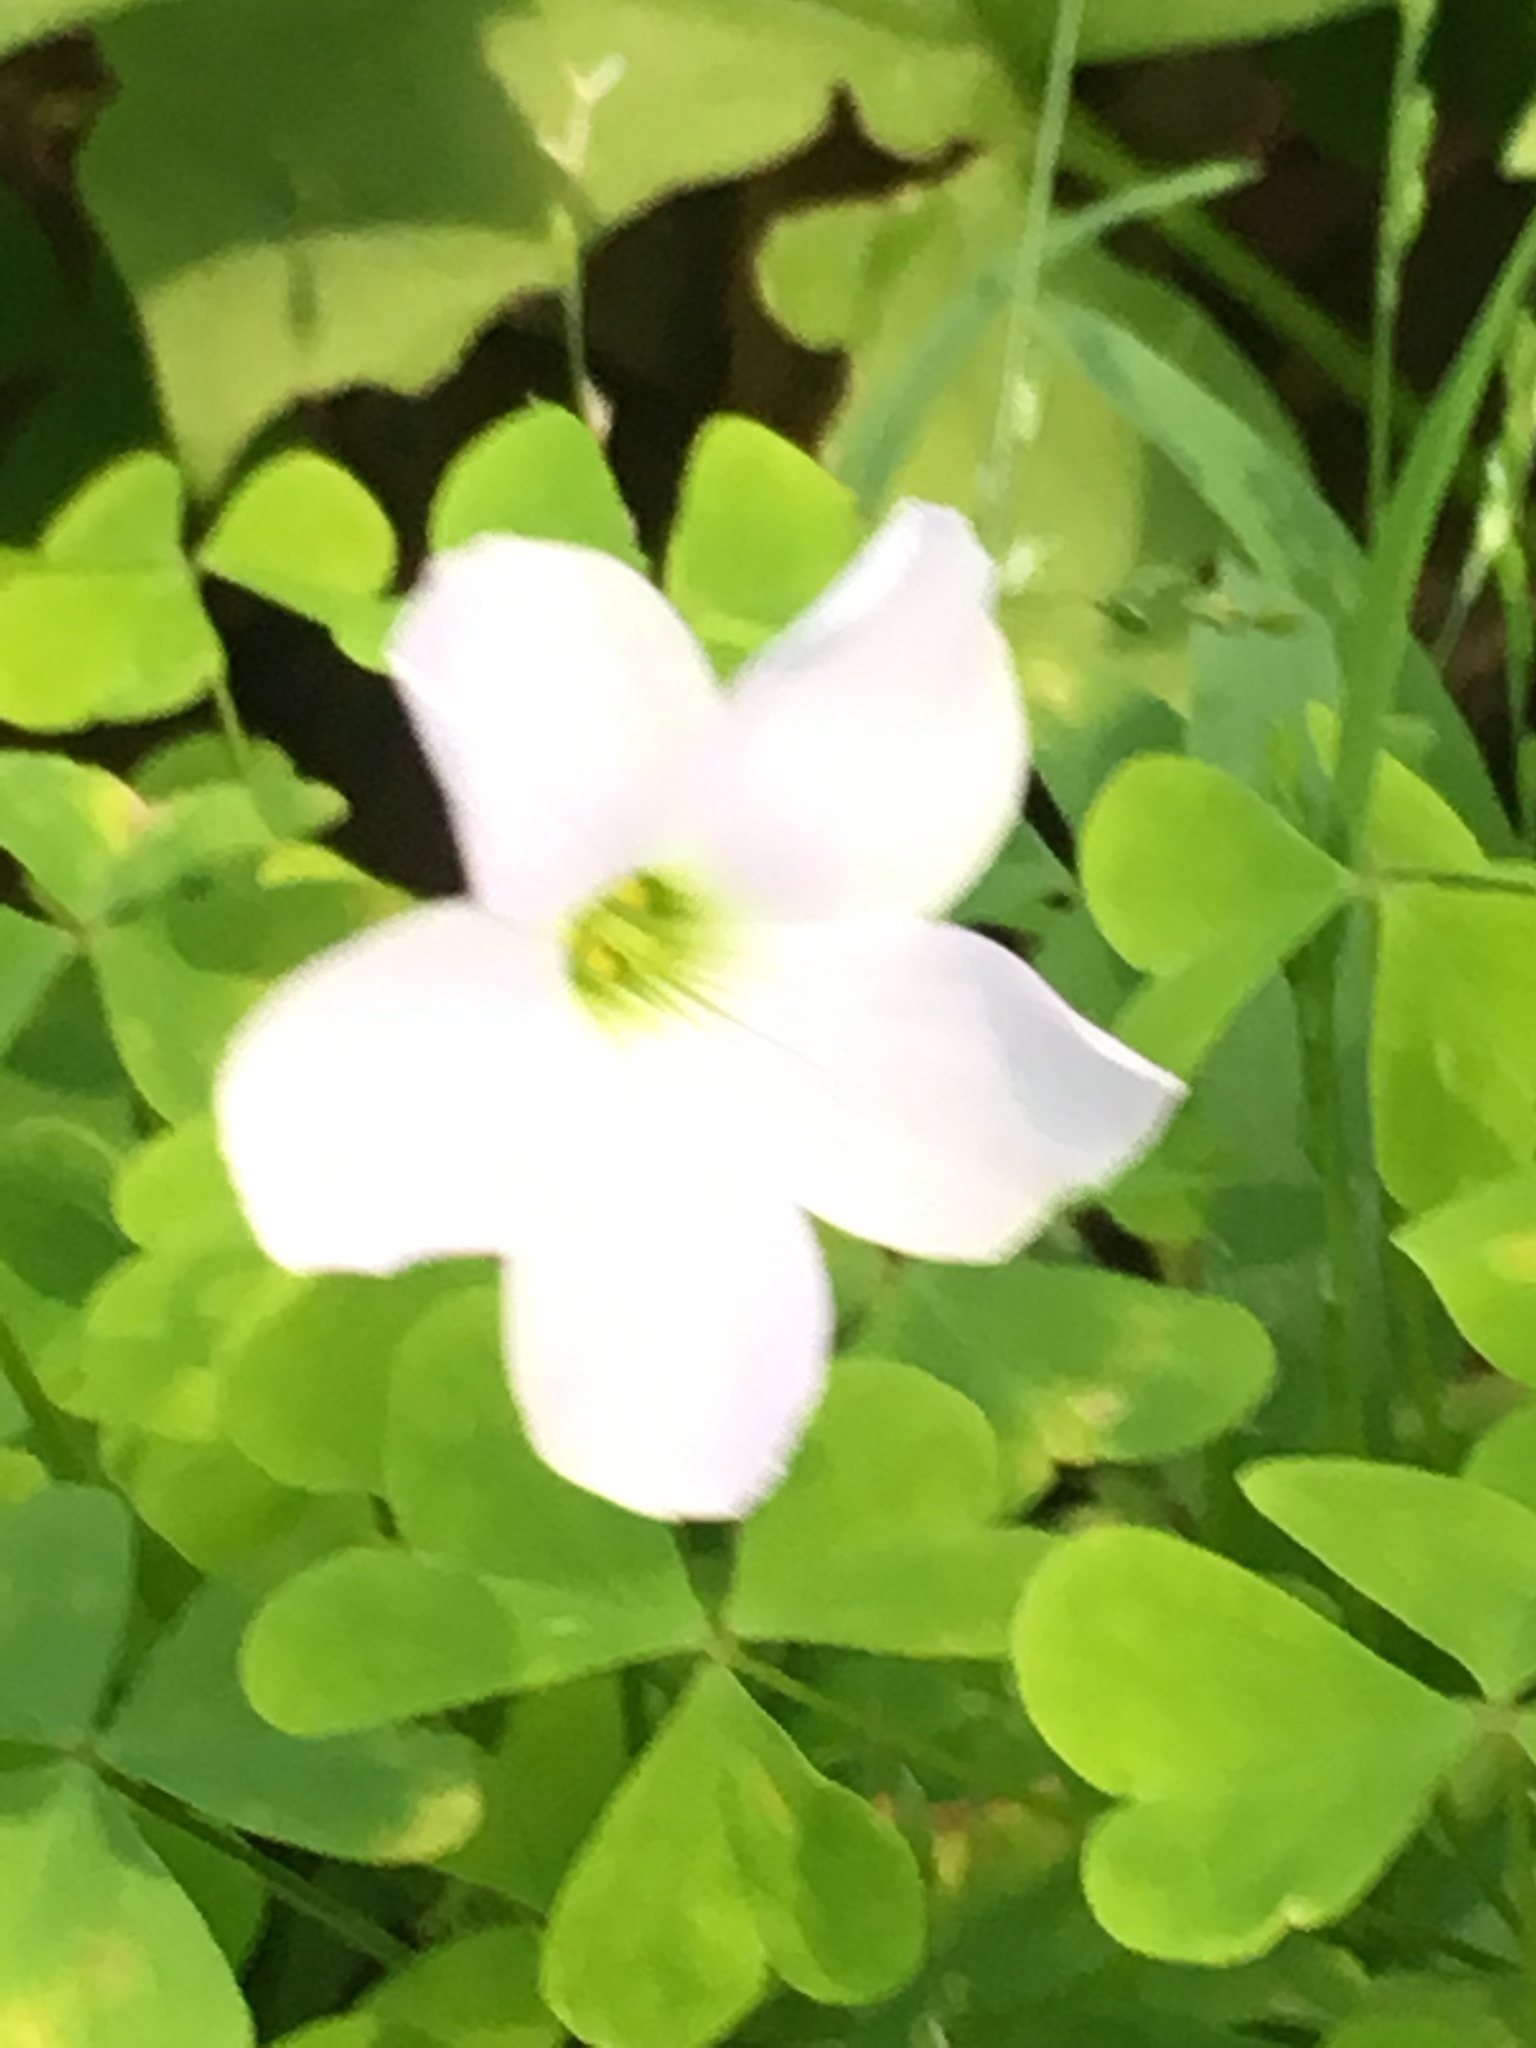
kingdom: Plantae
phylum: Tracheophyta
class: Magnoliopsida
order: Oxalidales
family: Oxalidaceae
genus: Oxalis
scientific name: Oxalis incarnata
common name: Pale pink-sorrel
